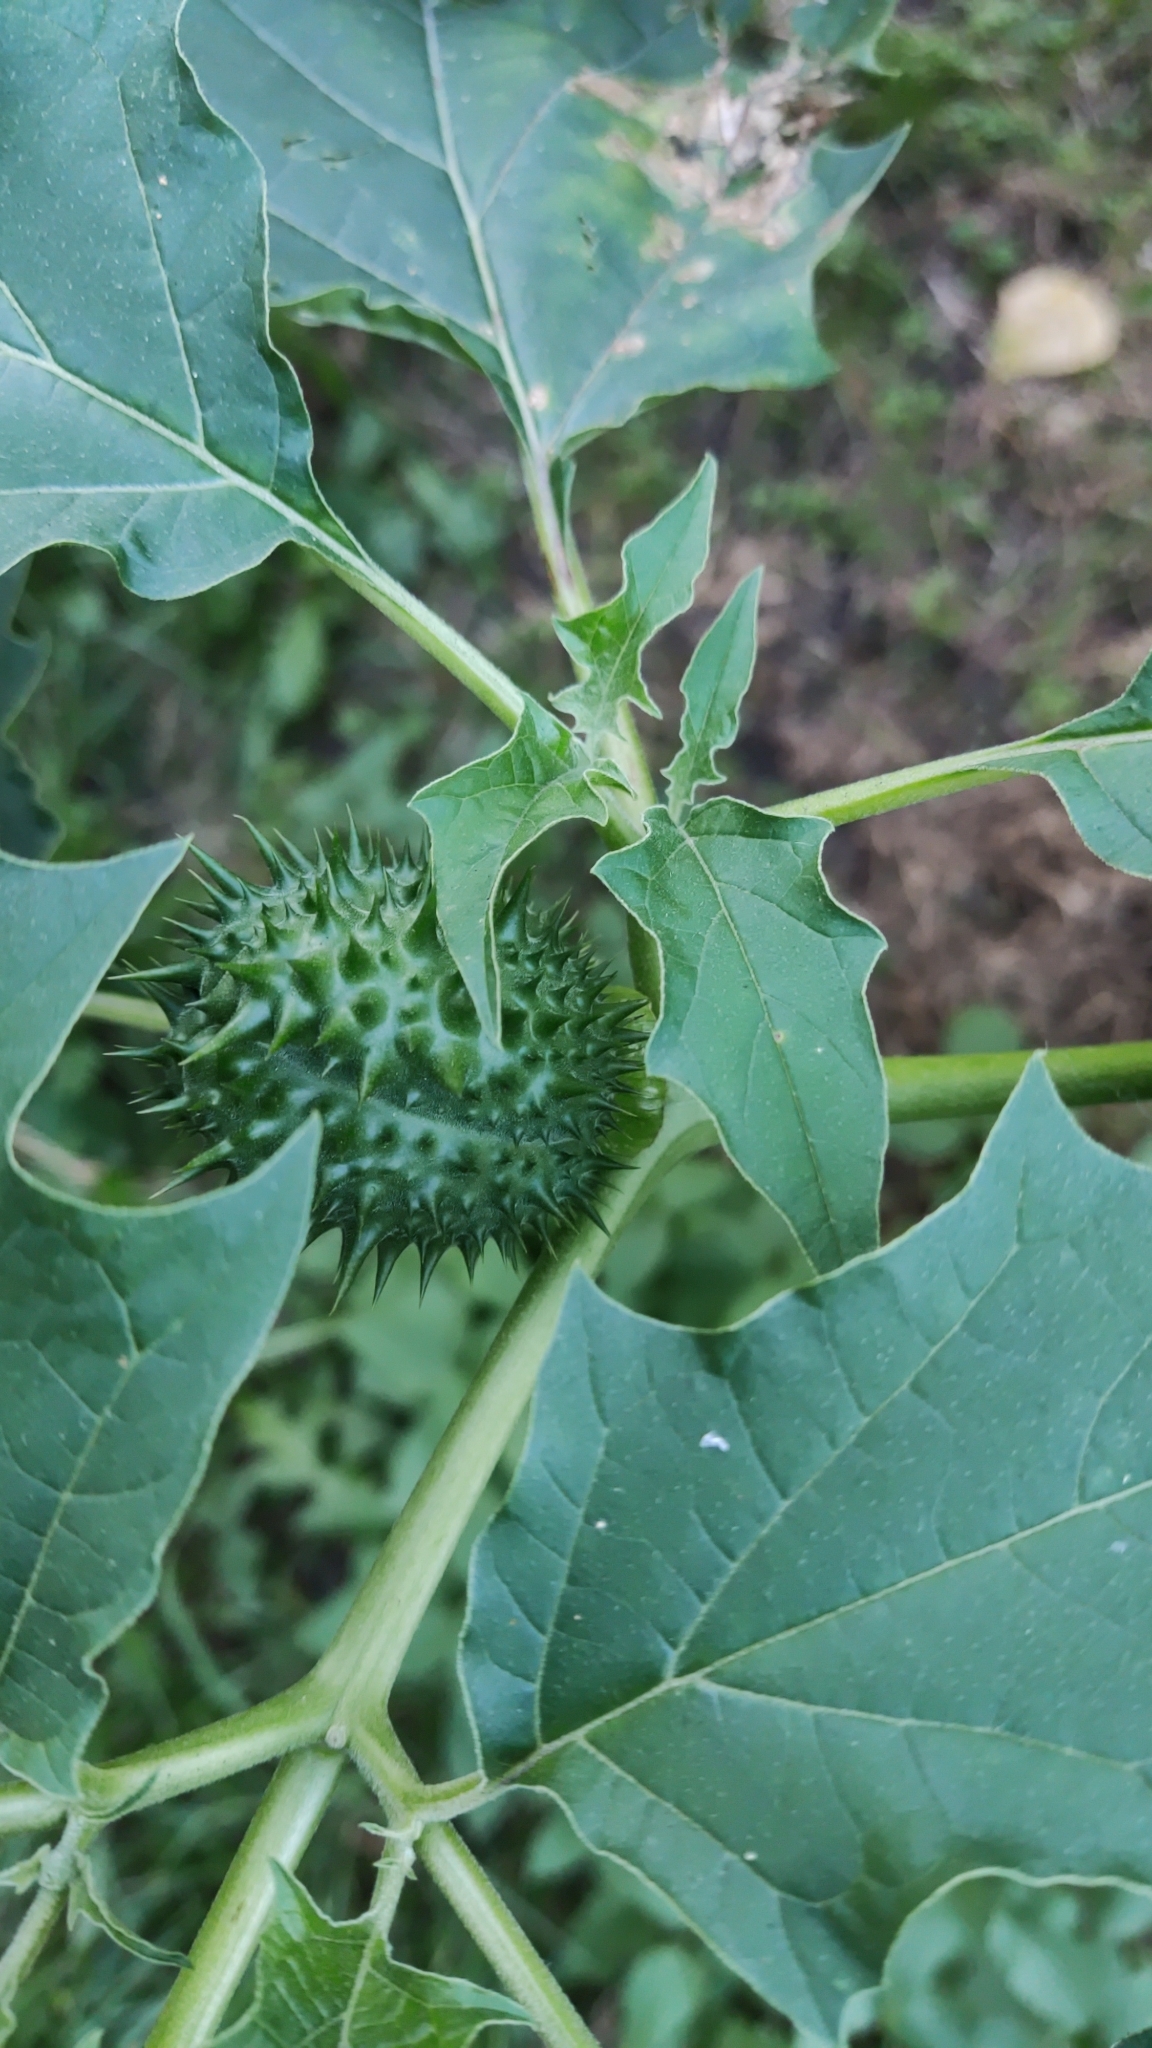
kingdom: Plantae
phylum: Tracheophyta
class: Magnoliopsida
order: Solanales
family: Solanaceae
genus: Datura
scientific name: Datura stramonium
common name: Thorn-apple
